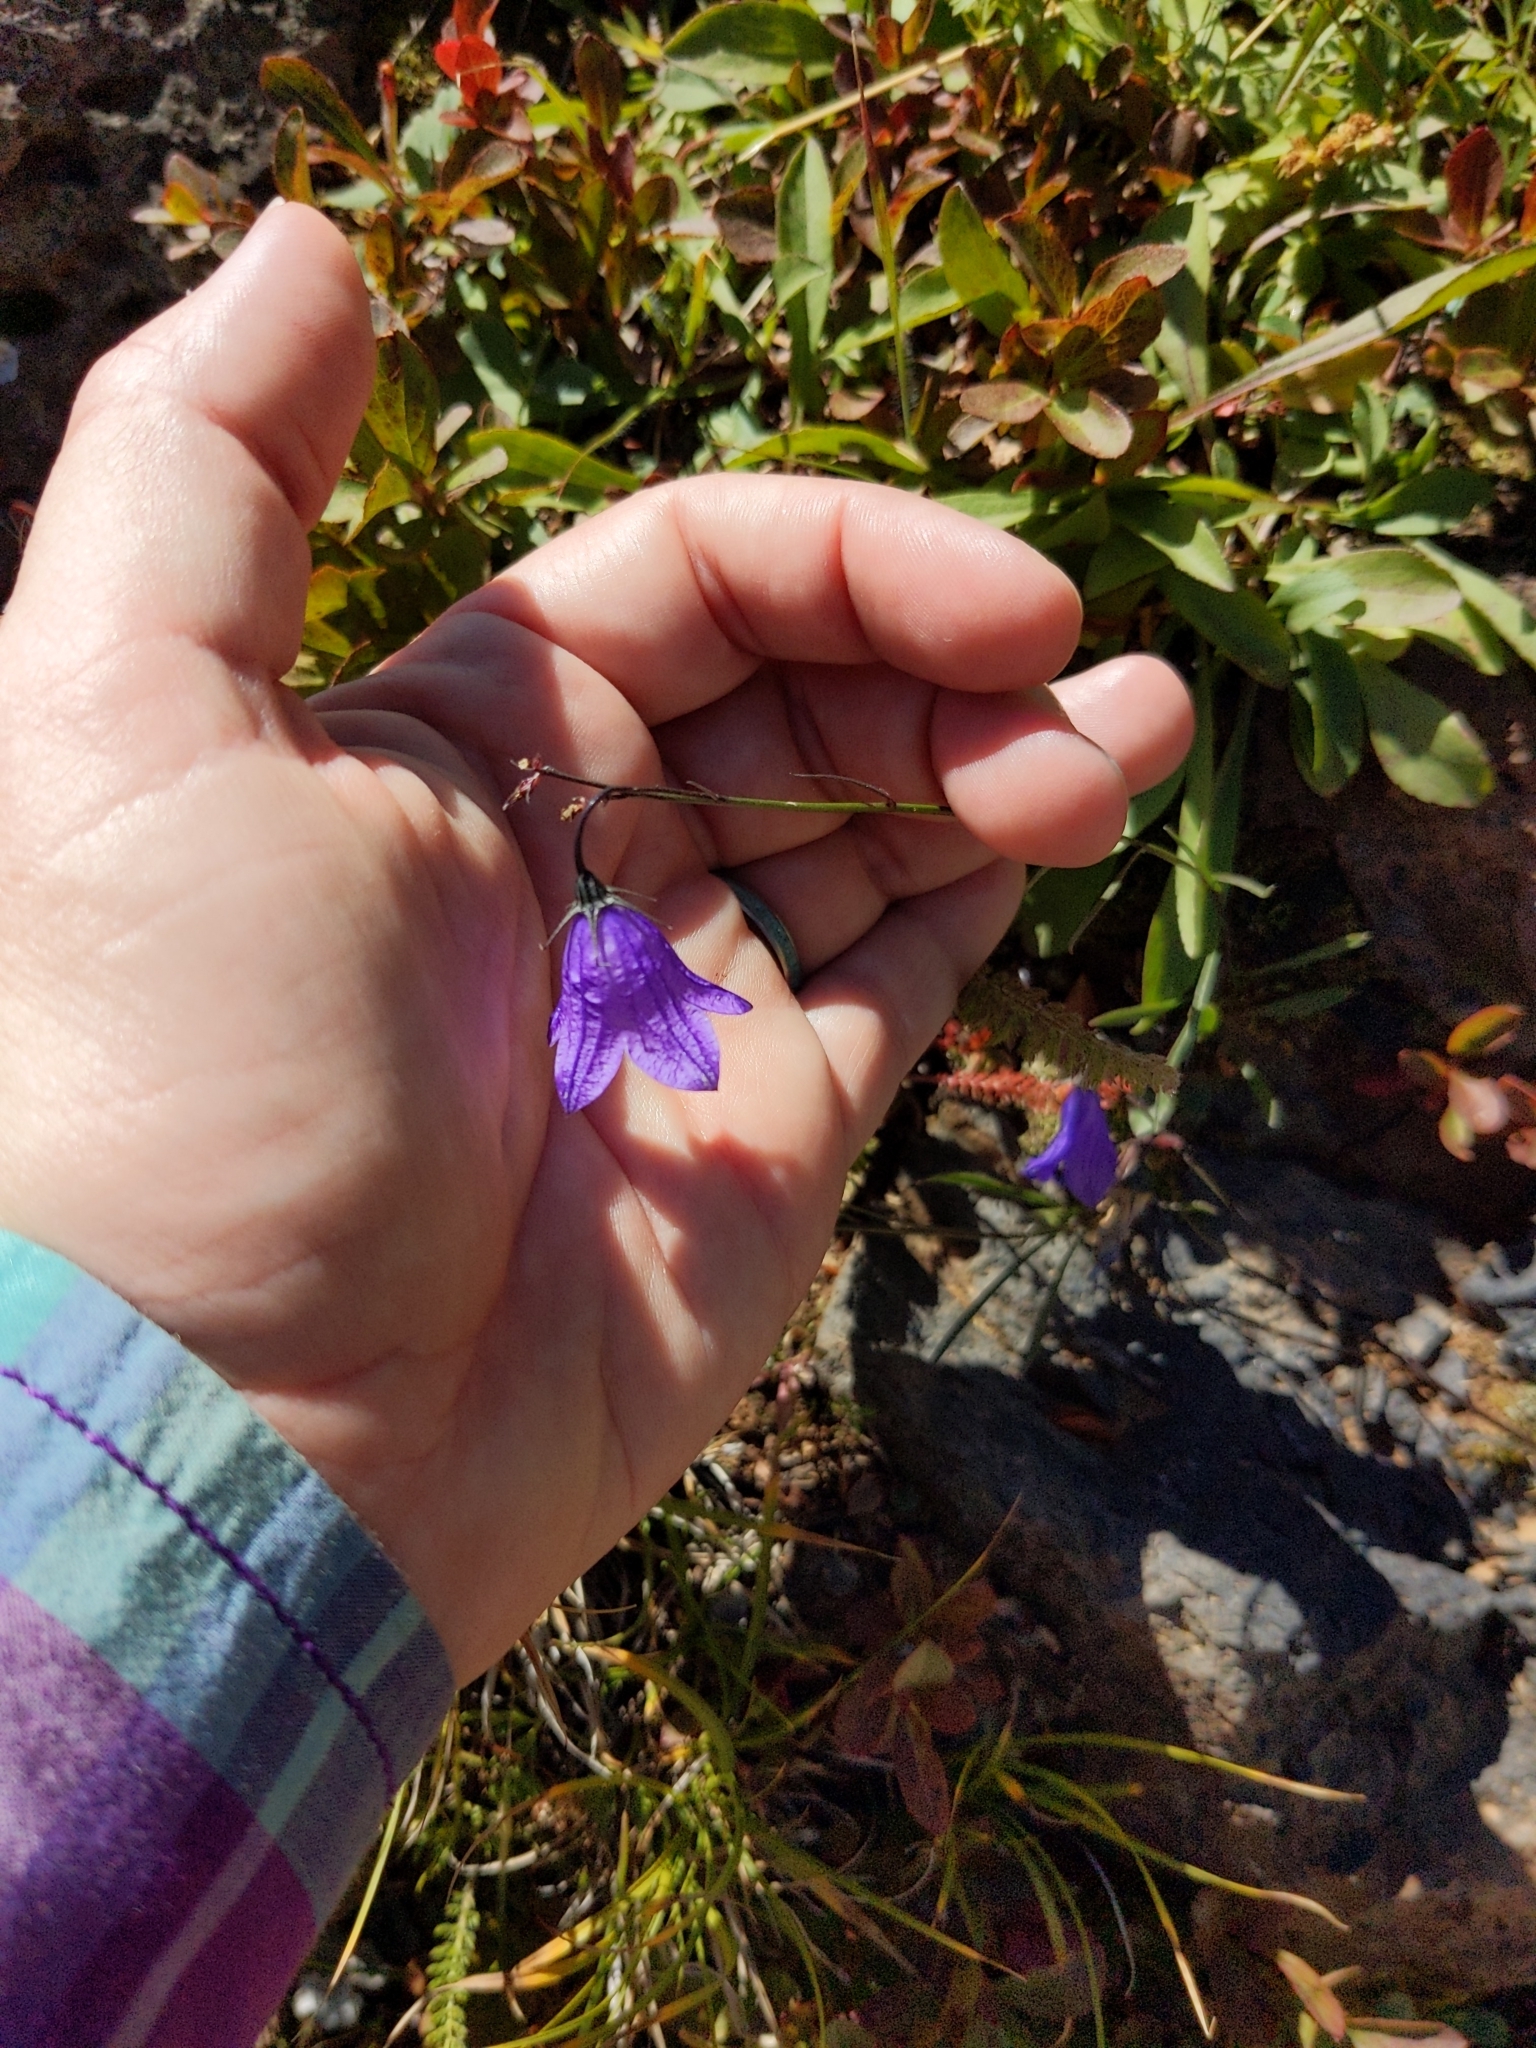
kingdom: Plantae
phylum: Tracheophyta
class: Magnoliopsida
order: Asterales
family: Campanulaceae
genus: Campanula
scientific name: Campanula petiolata
